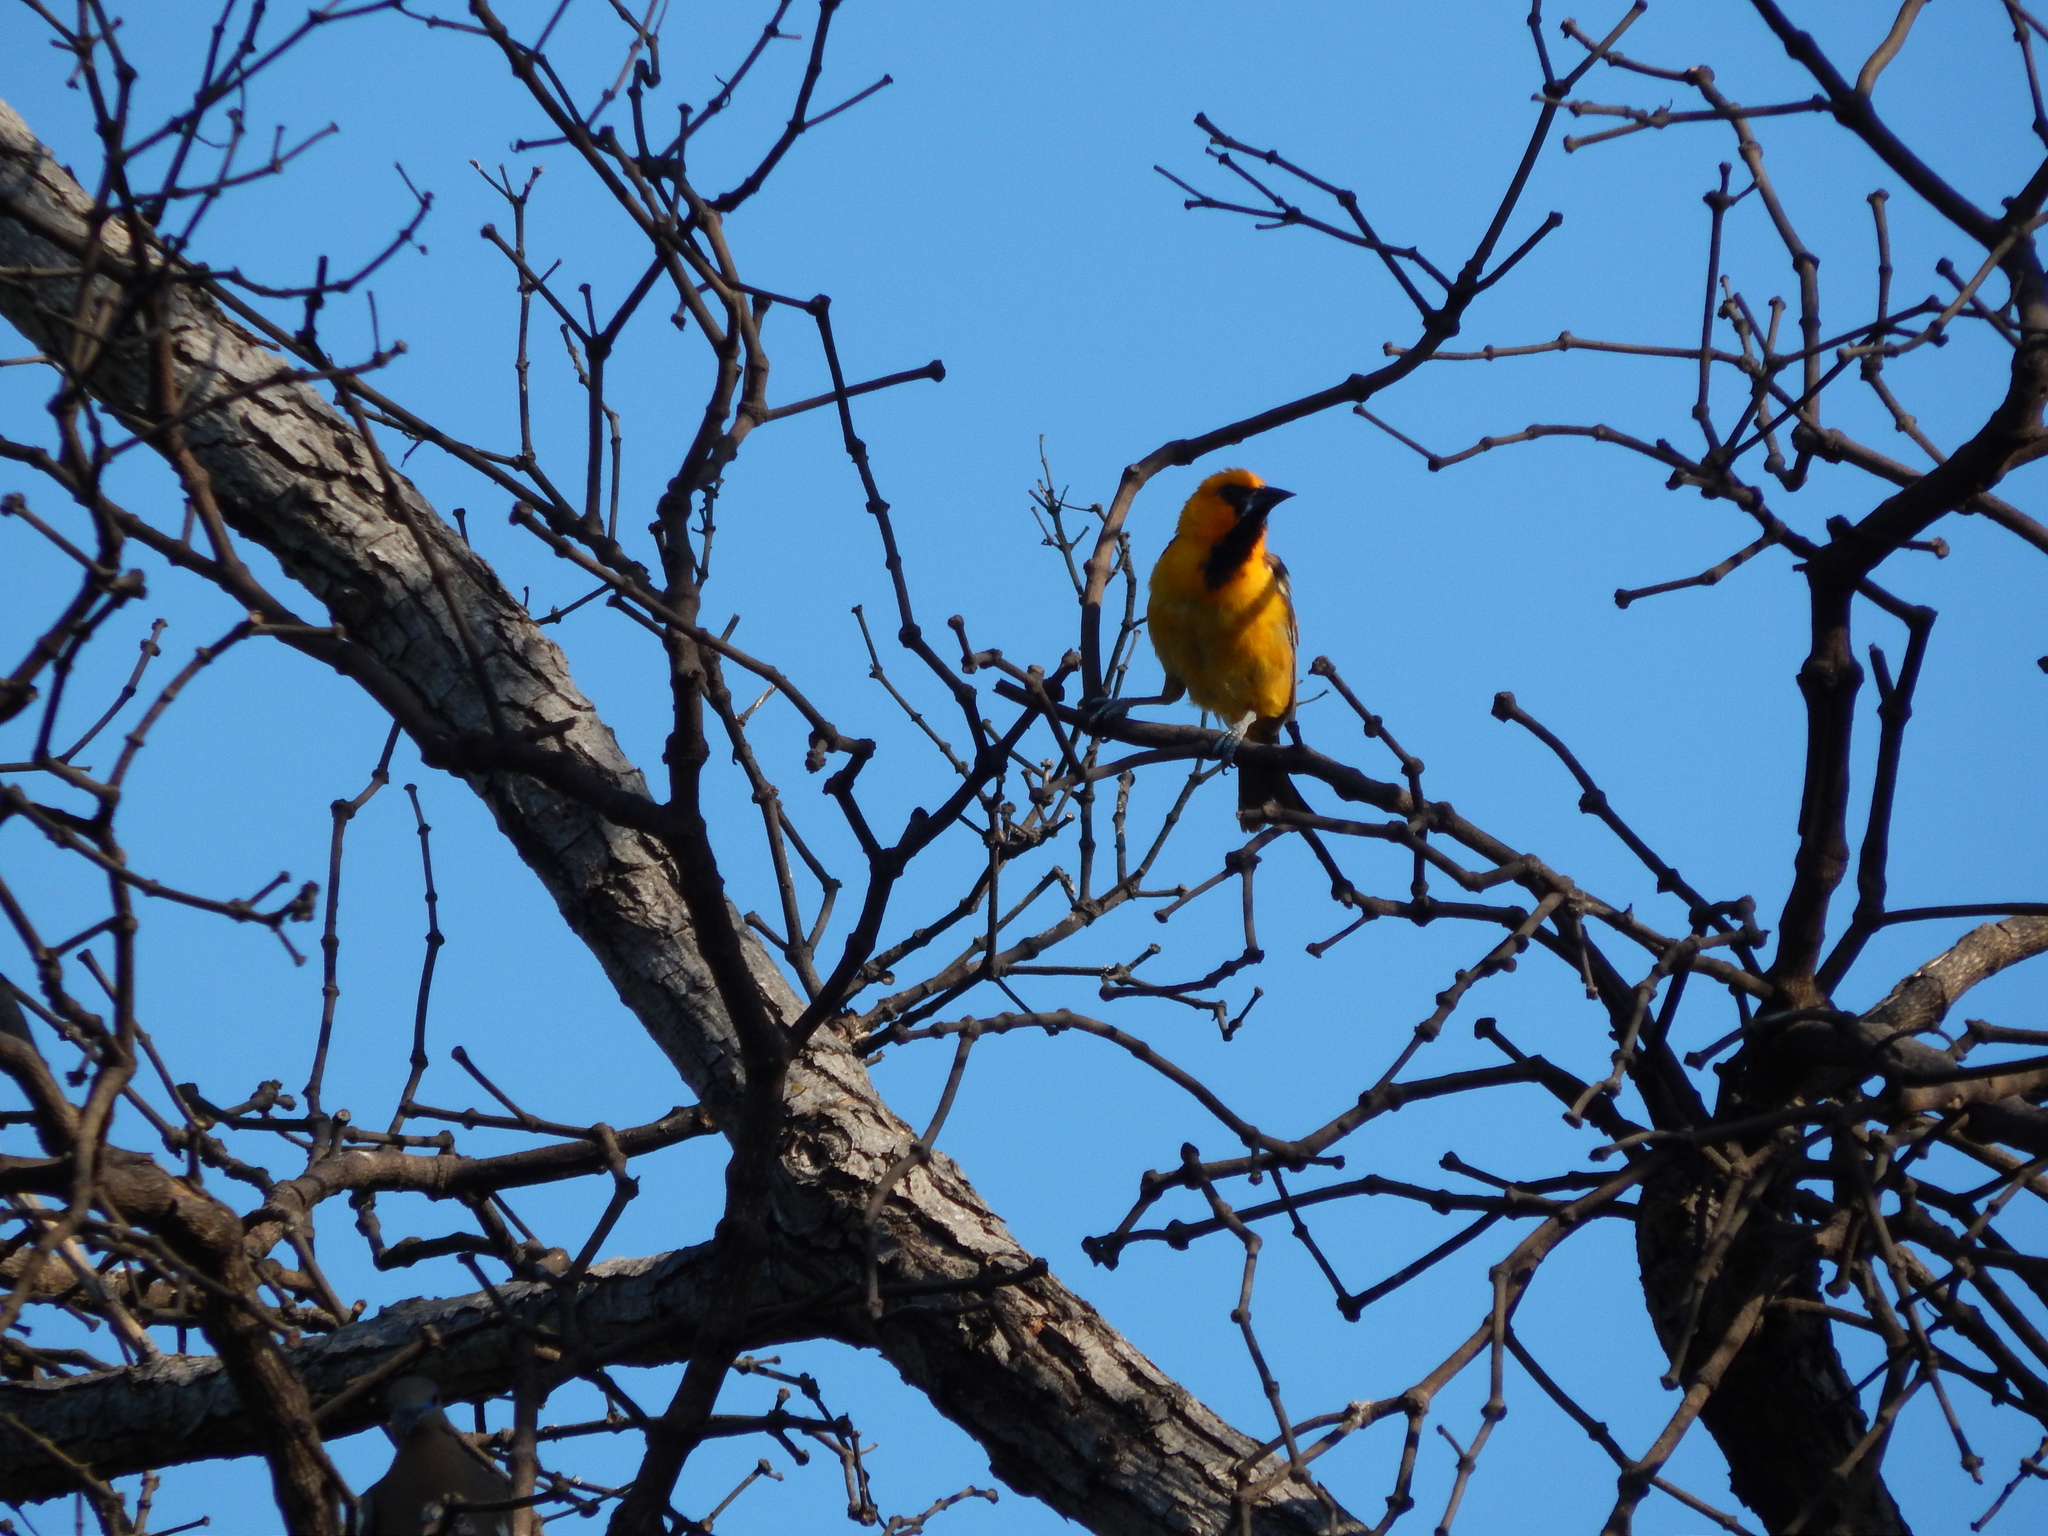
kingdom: Animalia
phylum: Chordata
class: Aves
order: Passeriformes
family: Icteridae
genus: Icterus
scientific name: Icterus gularis
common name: Altamira oriole
